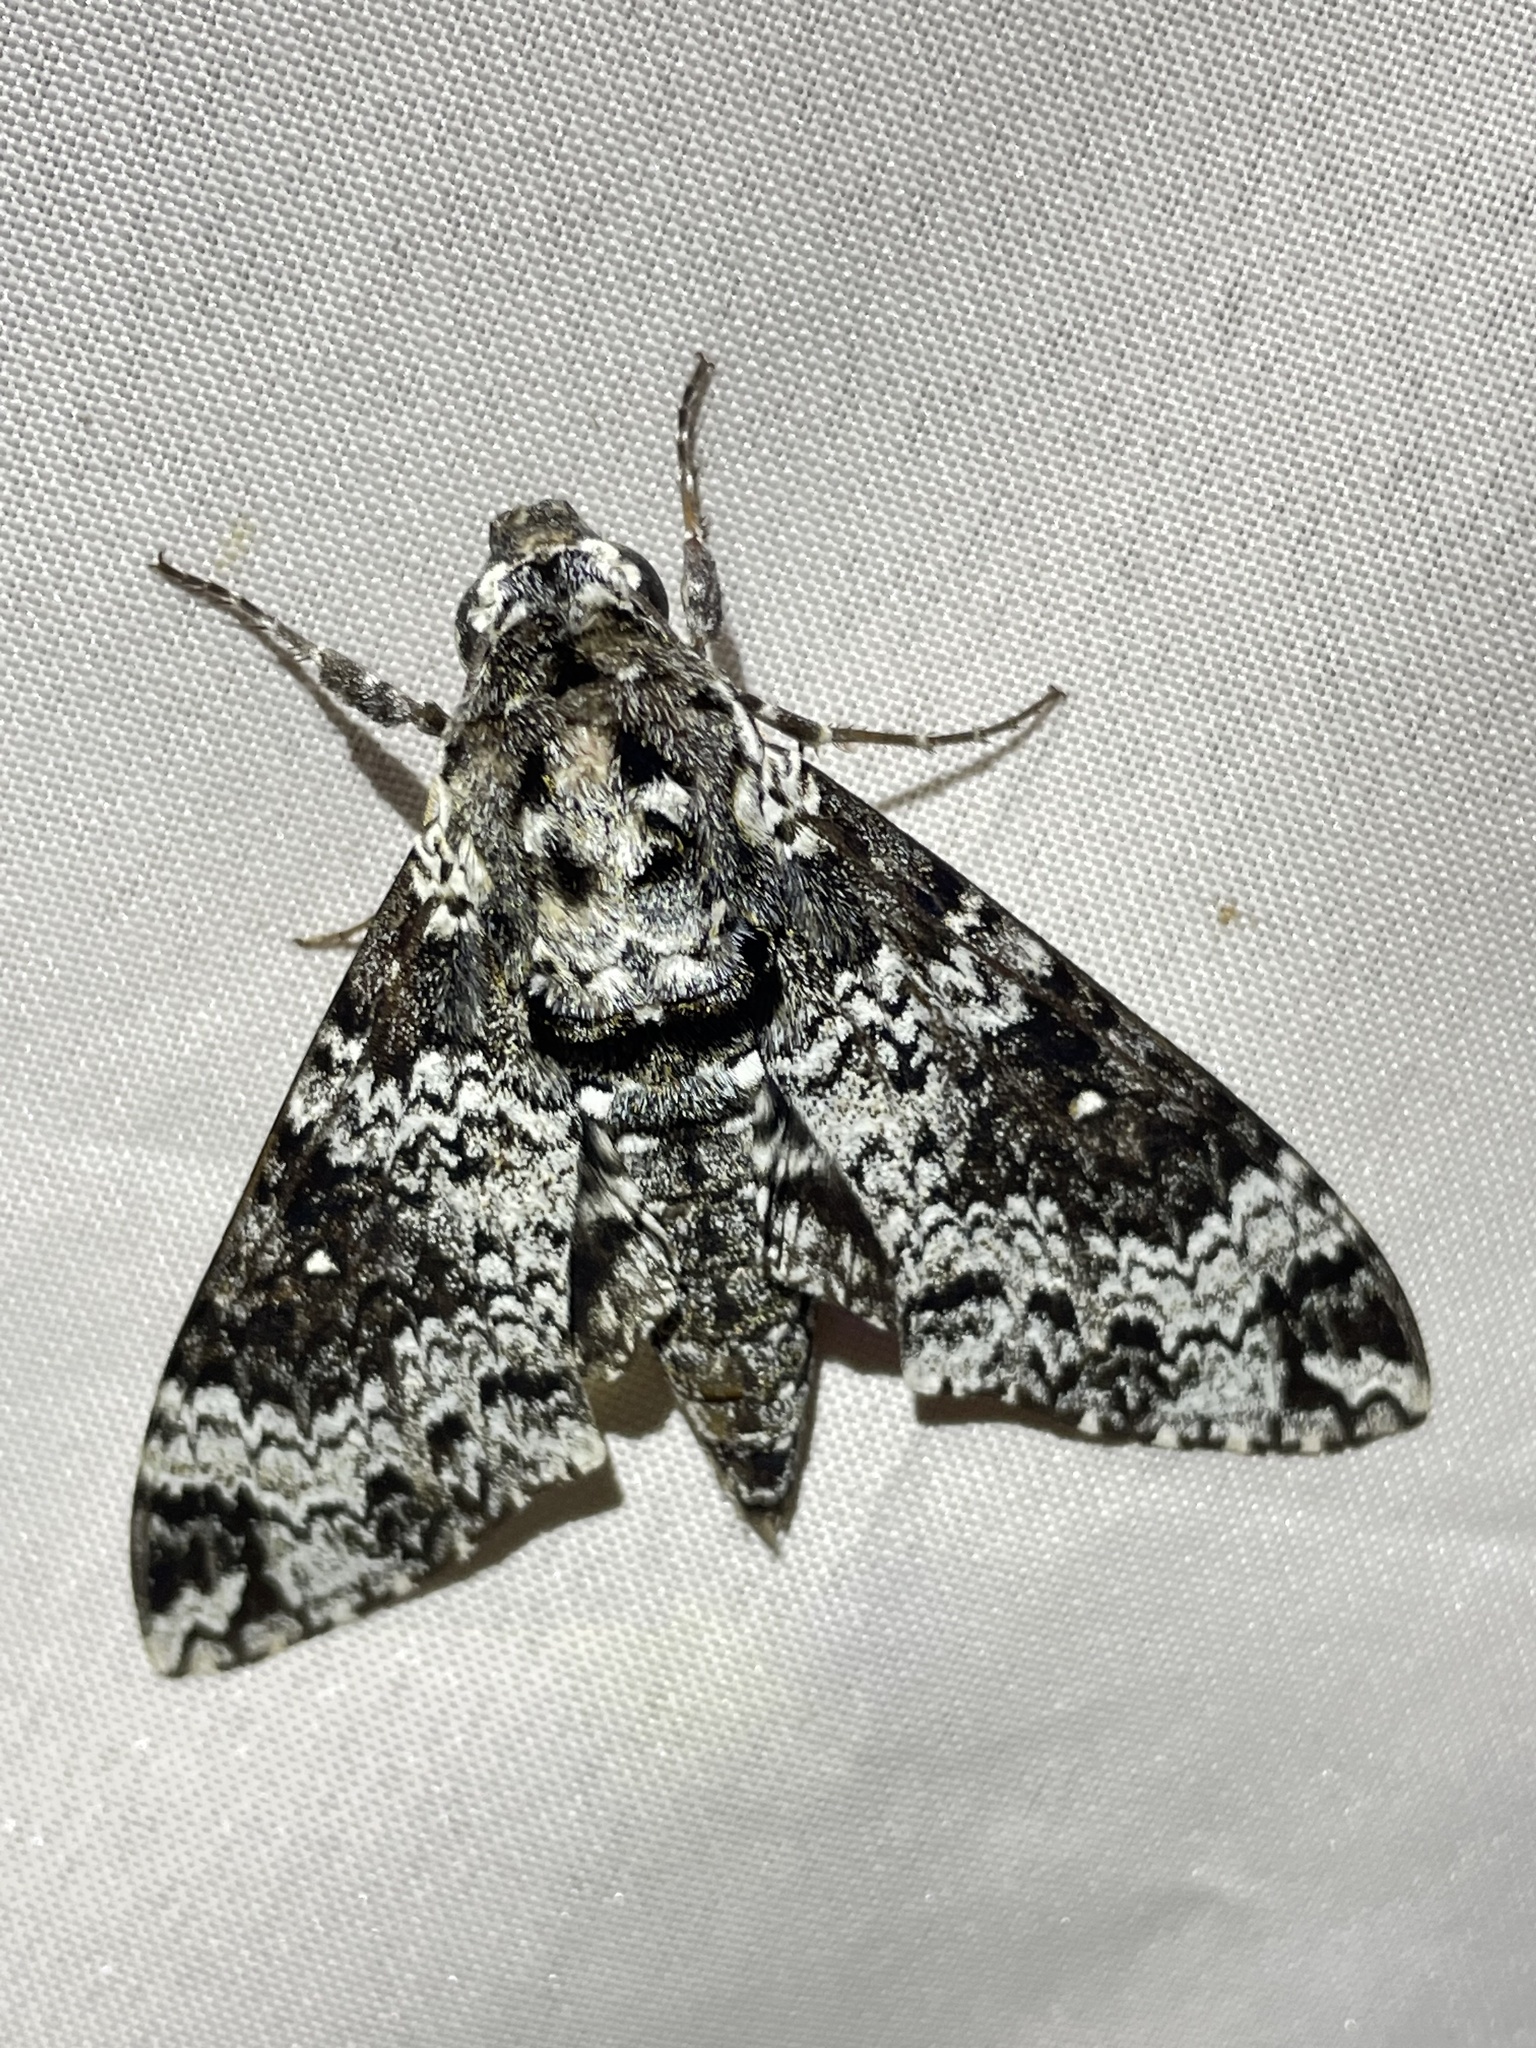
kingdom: Animalia
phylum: Arthropoda
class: Insecta
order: Lepidoptera
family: Sphingidae
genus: Manduca
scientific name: Manduca rustica
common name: Rustic sphinx
